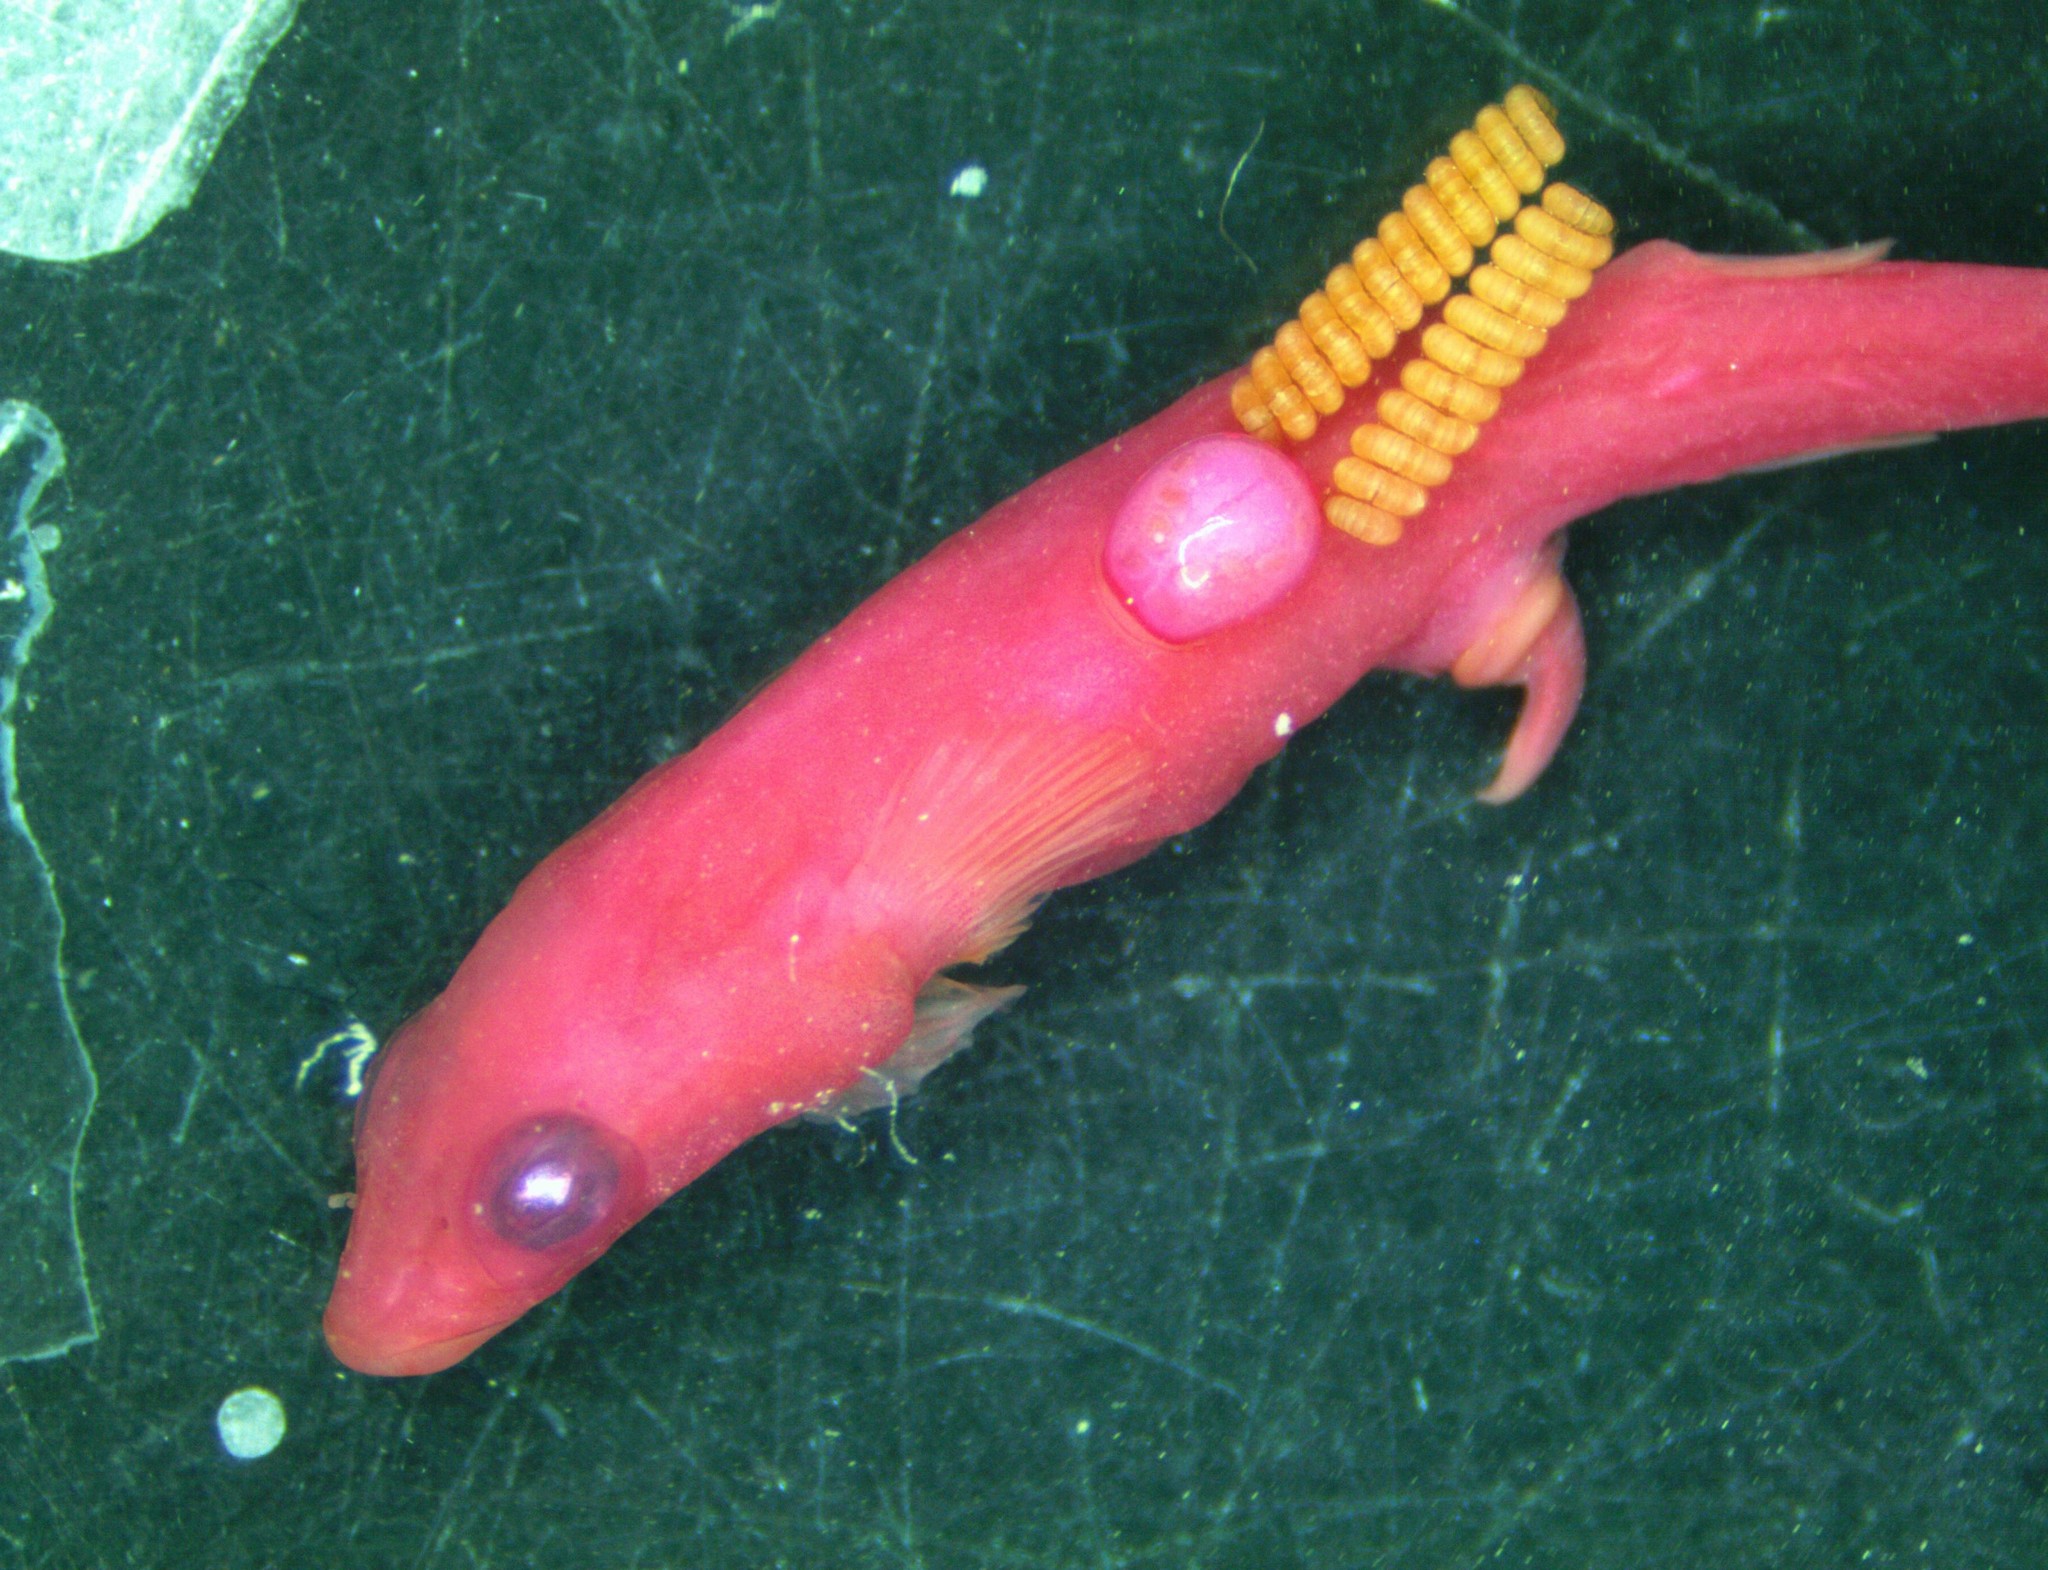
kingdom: Animalia
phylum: Arthropoda
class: Copepoda
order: Siphonostomatoida
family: Pennellidae
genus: Impexus
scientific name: Impexus hamondi
